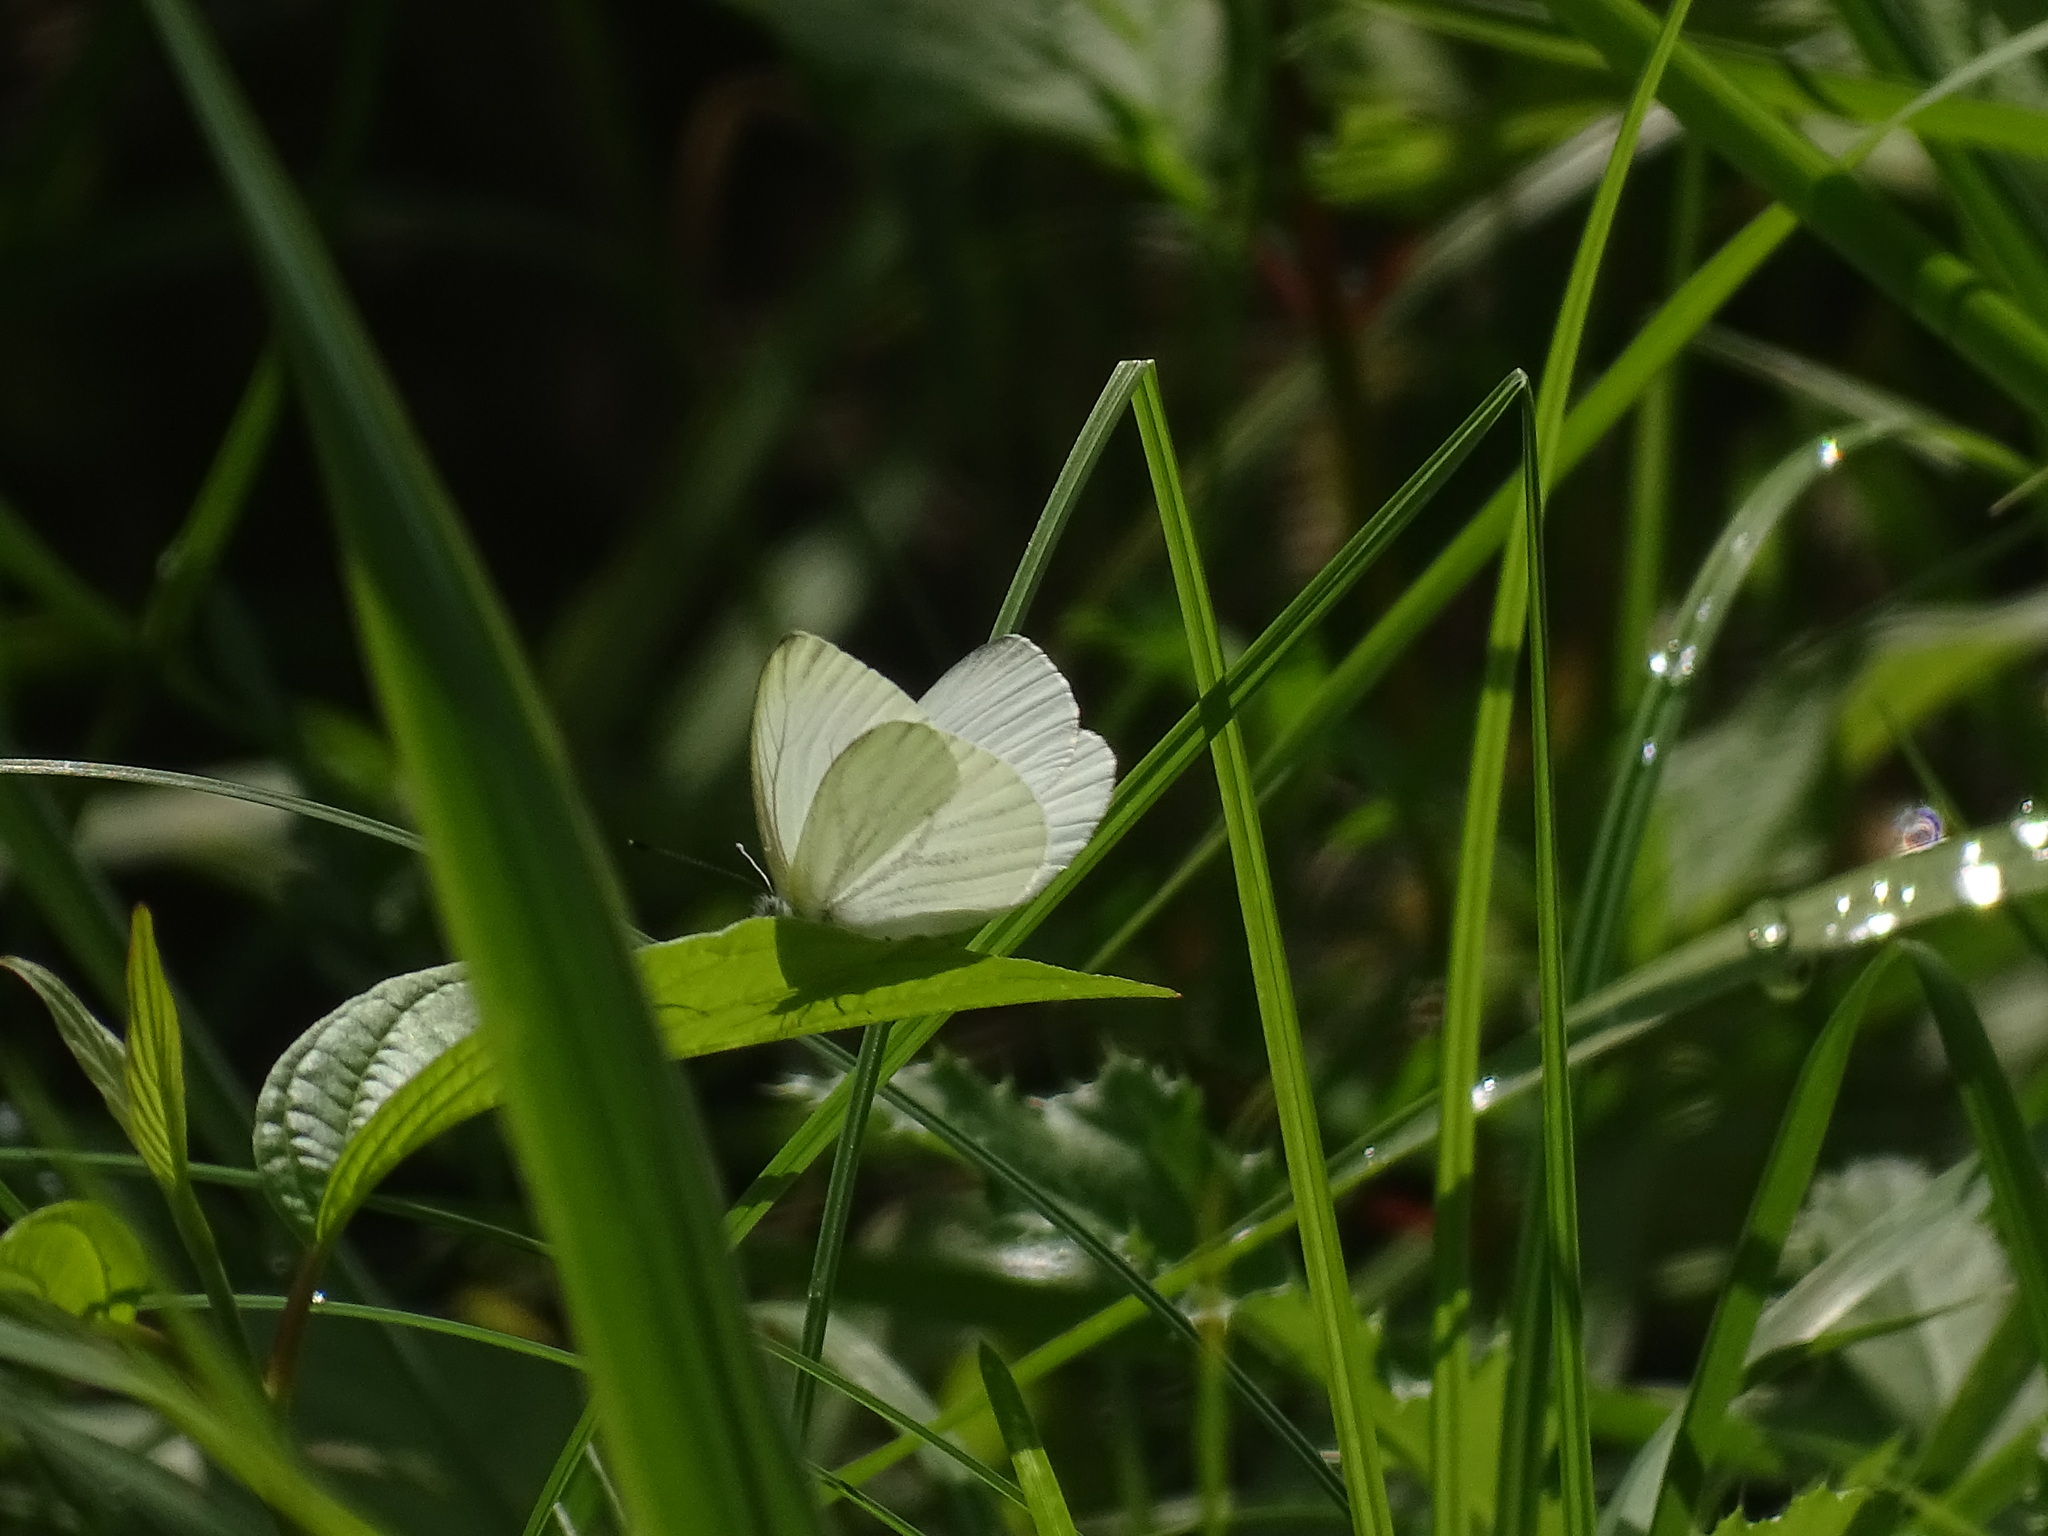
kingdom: Animalia
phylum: Arthropoda
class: Insecta
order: Lepidoptera
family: Pieridae
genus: Pieris
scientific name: Pieris oleracea
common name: Mustard white
